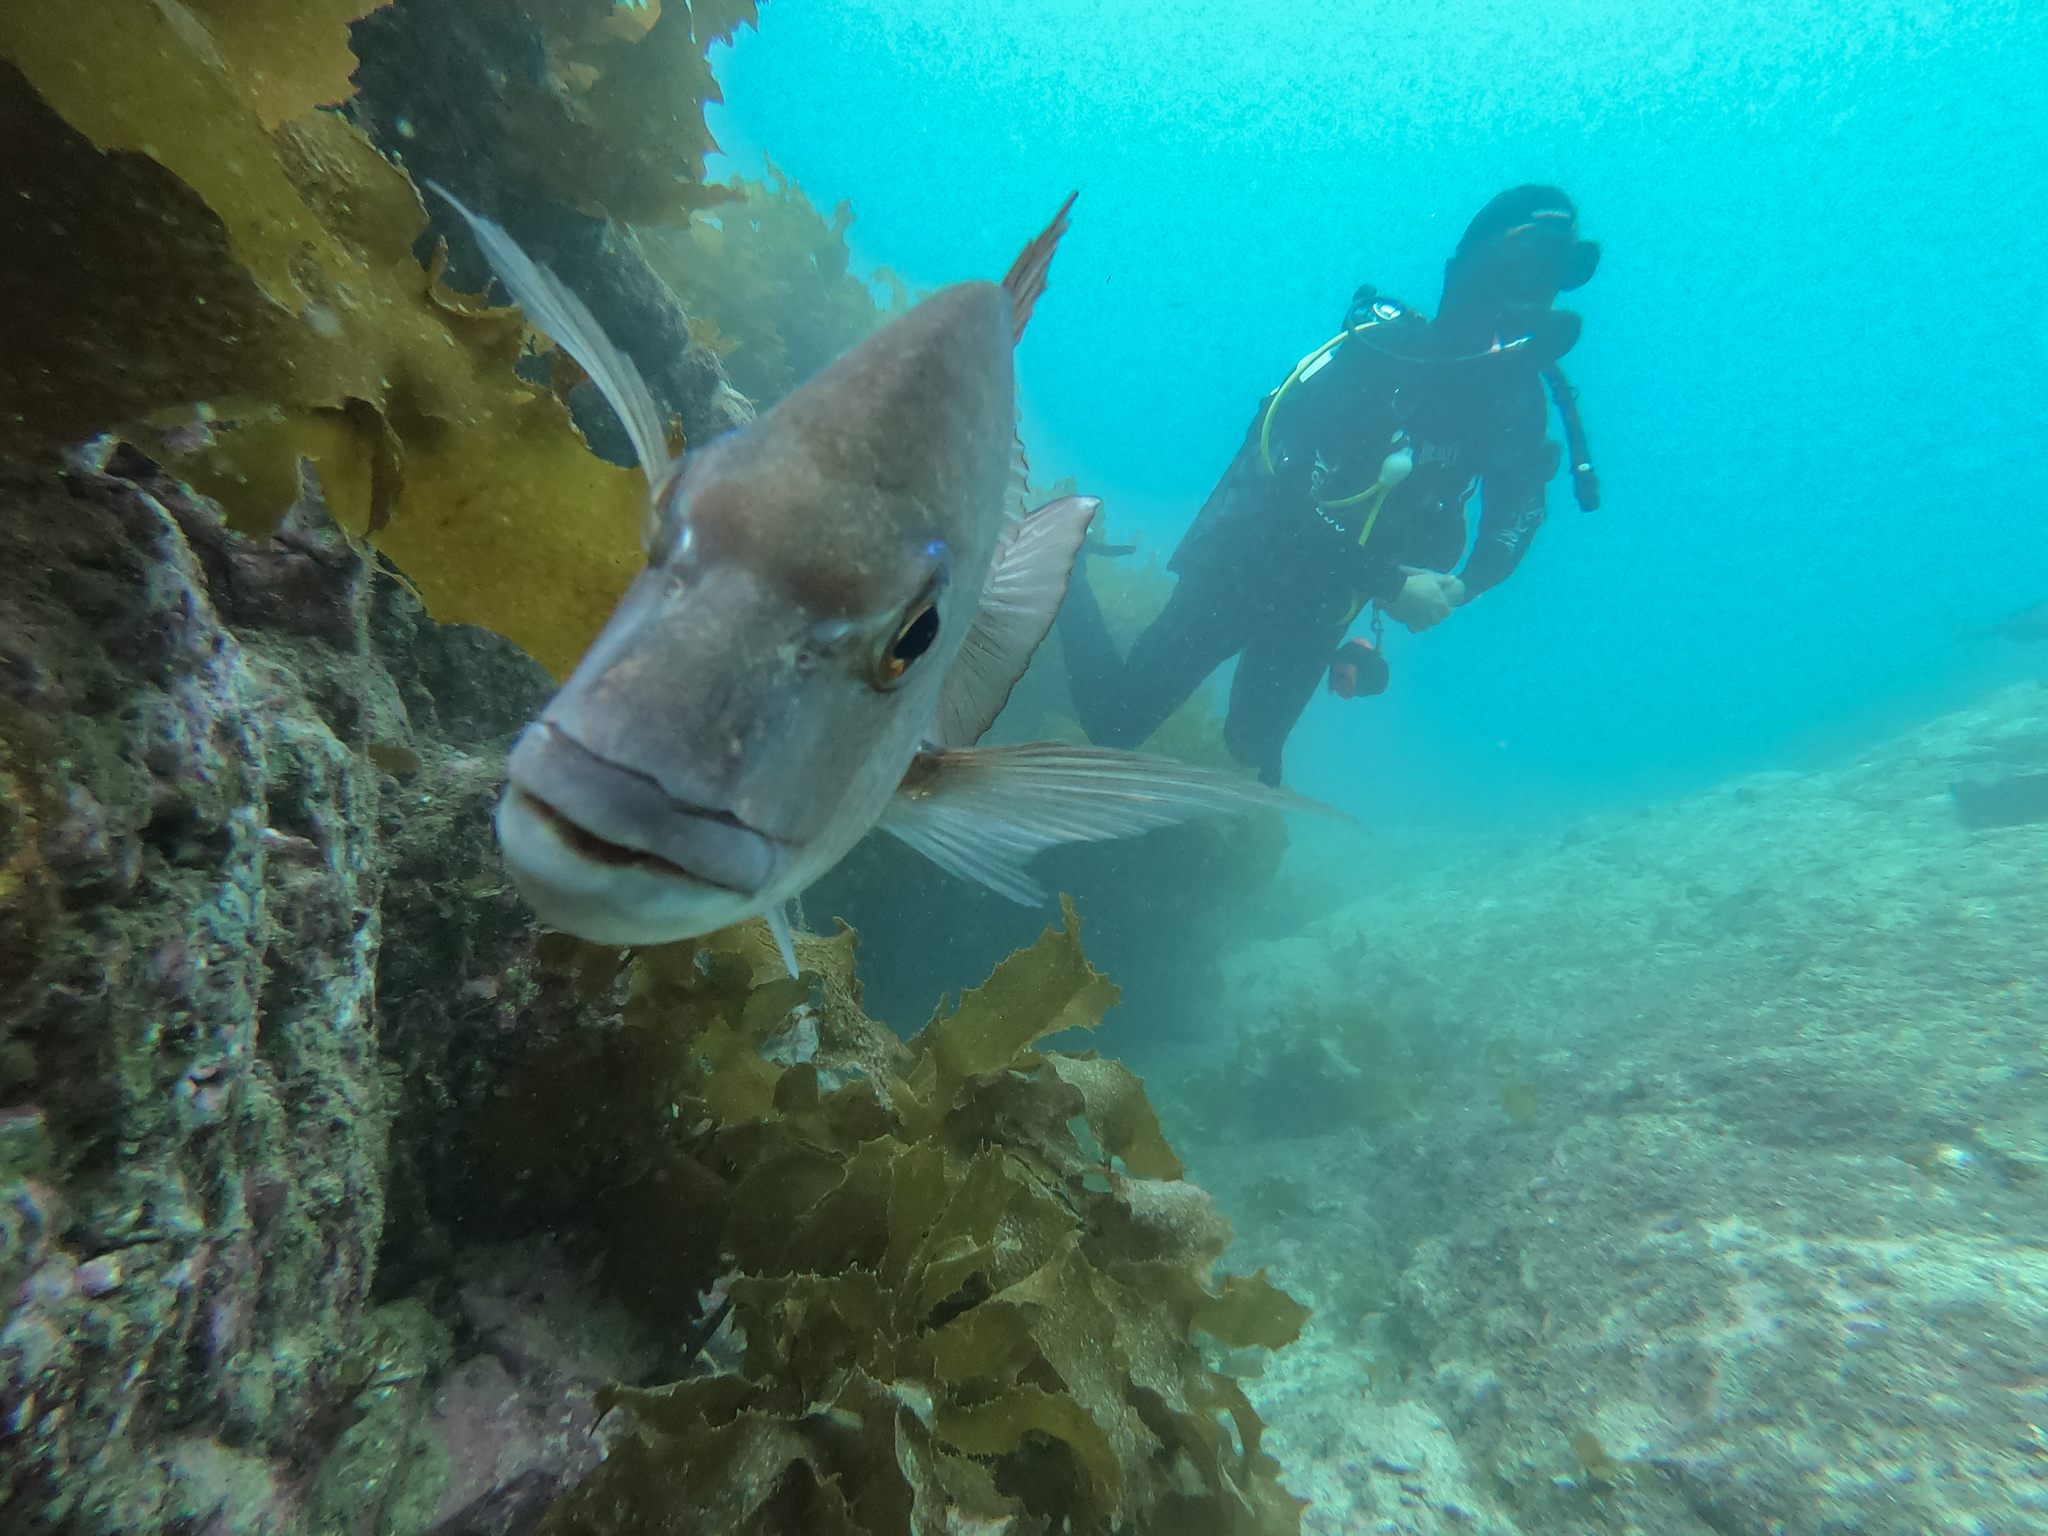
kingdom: Animalia
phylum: Chordata
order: Perciformes
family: Sparidae
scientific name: Sparidae
